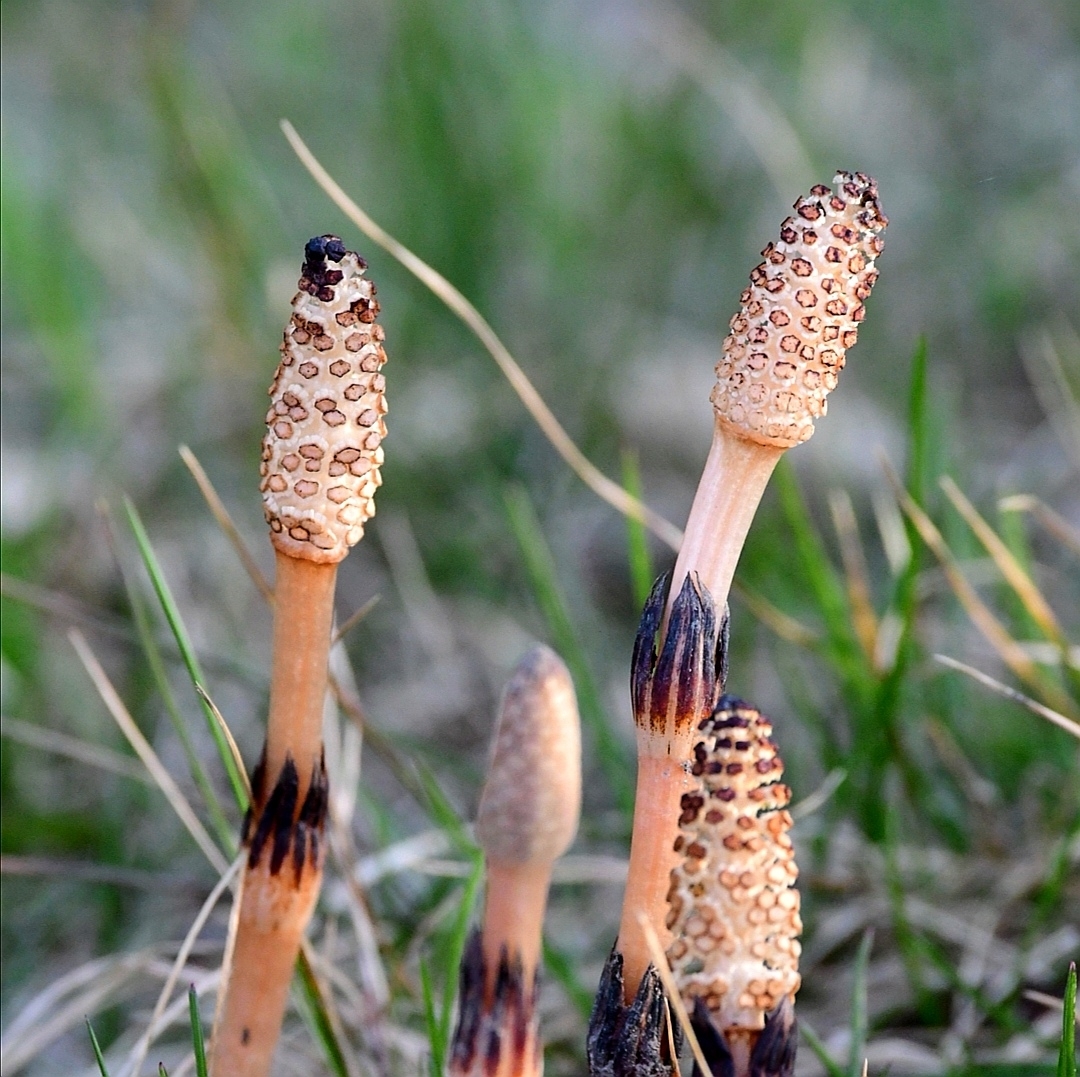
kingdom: Plantae
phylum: Tracheophyta
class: Polypodiopsida
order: Equisetales
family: Equisetaceae
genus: Equisetum
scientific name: Equisetum arvense
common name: Field horsetail
